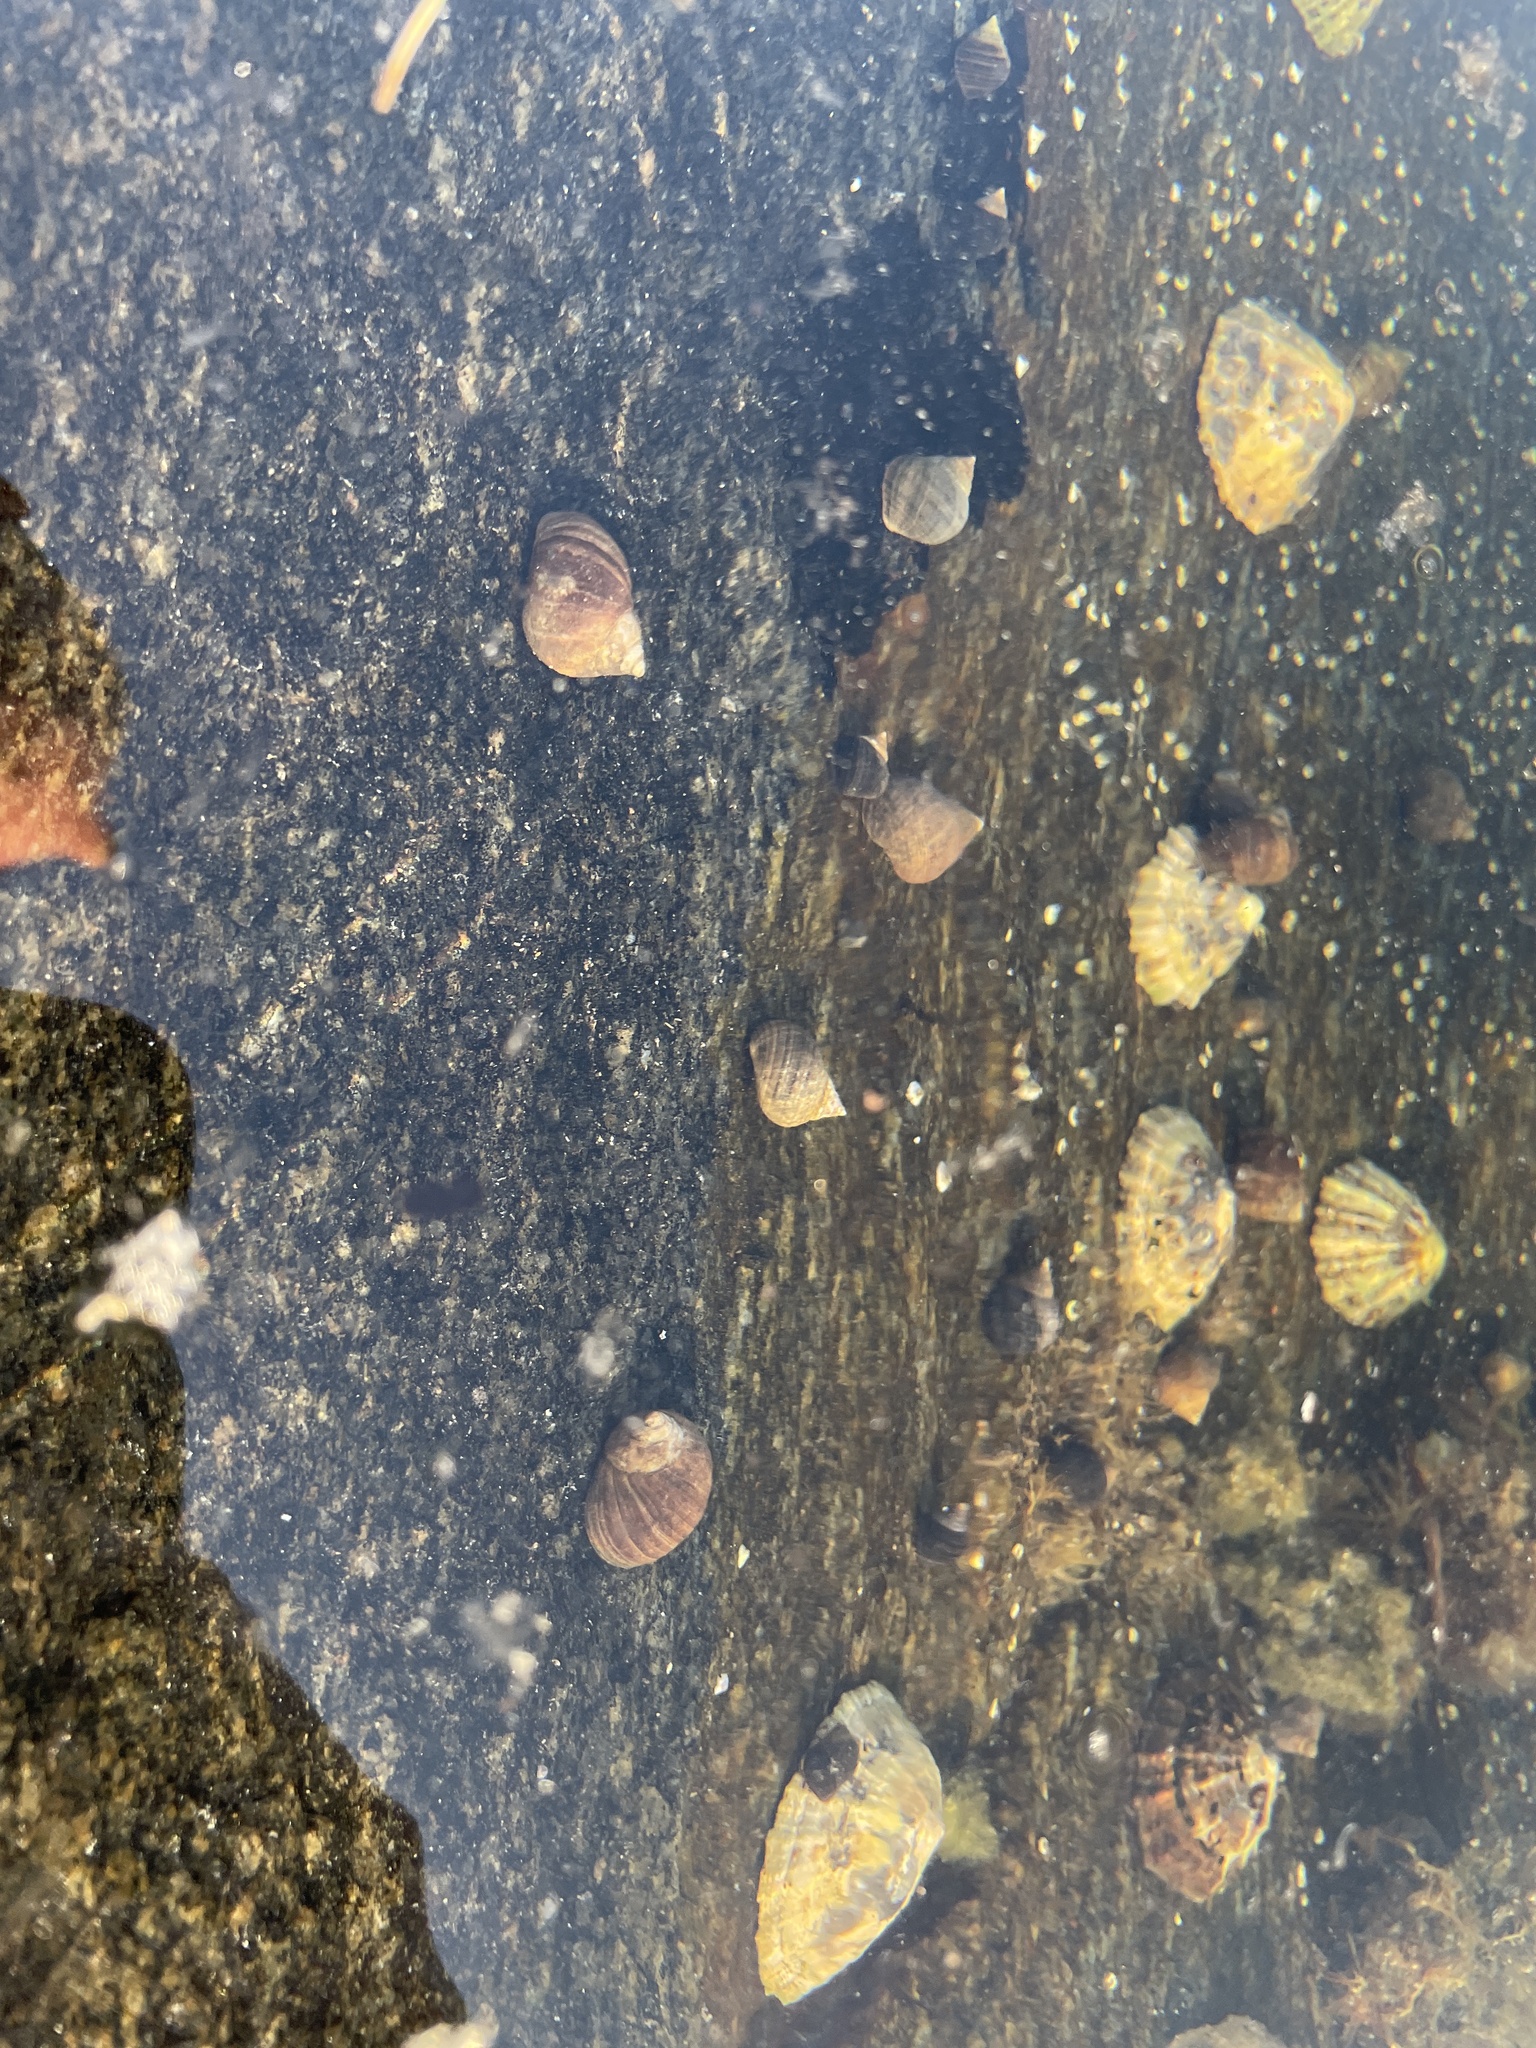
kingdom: Animalia
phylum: Mollusca
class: Gastropoda
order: Littorinimorpha
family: Littorinidae
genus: Littorina
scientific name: Littorina littorea
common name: Common periwinkle
